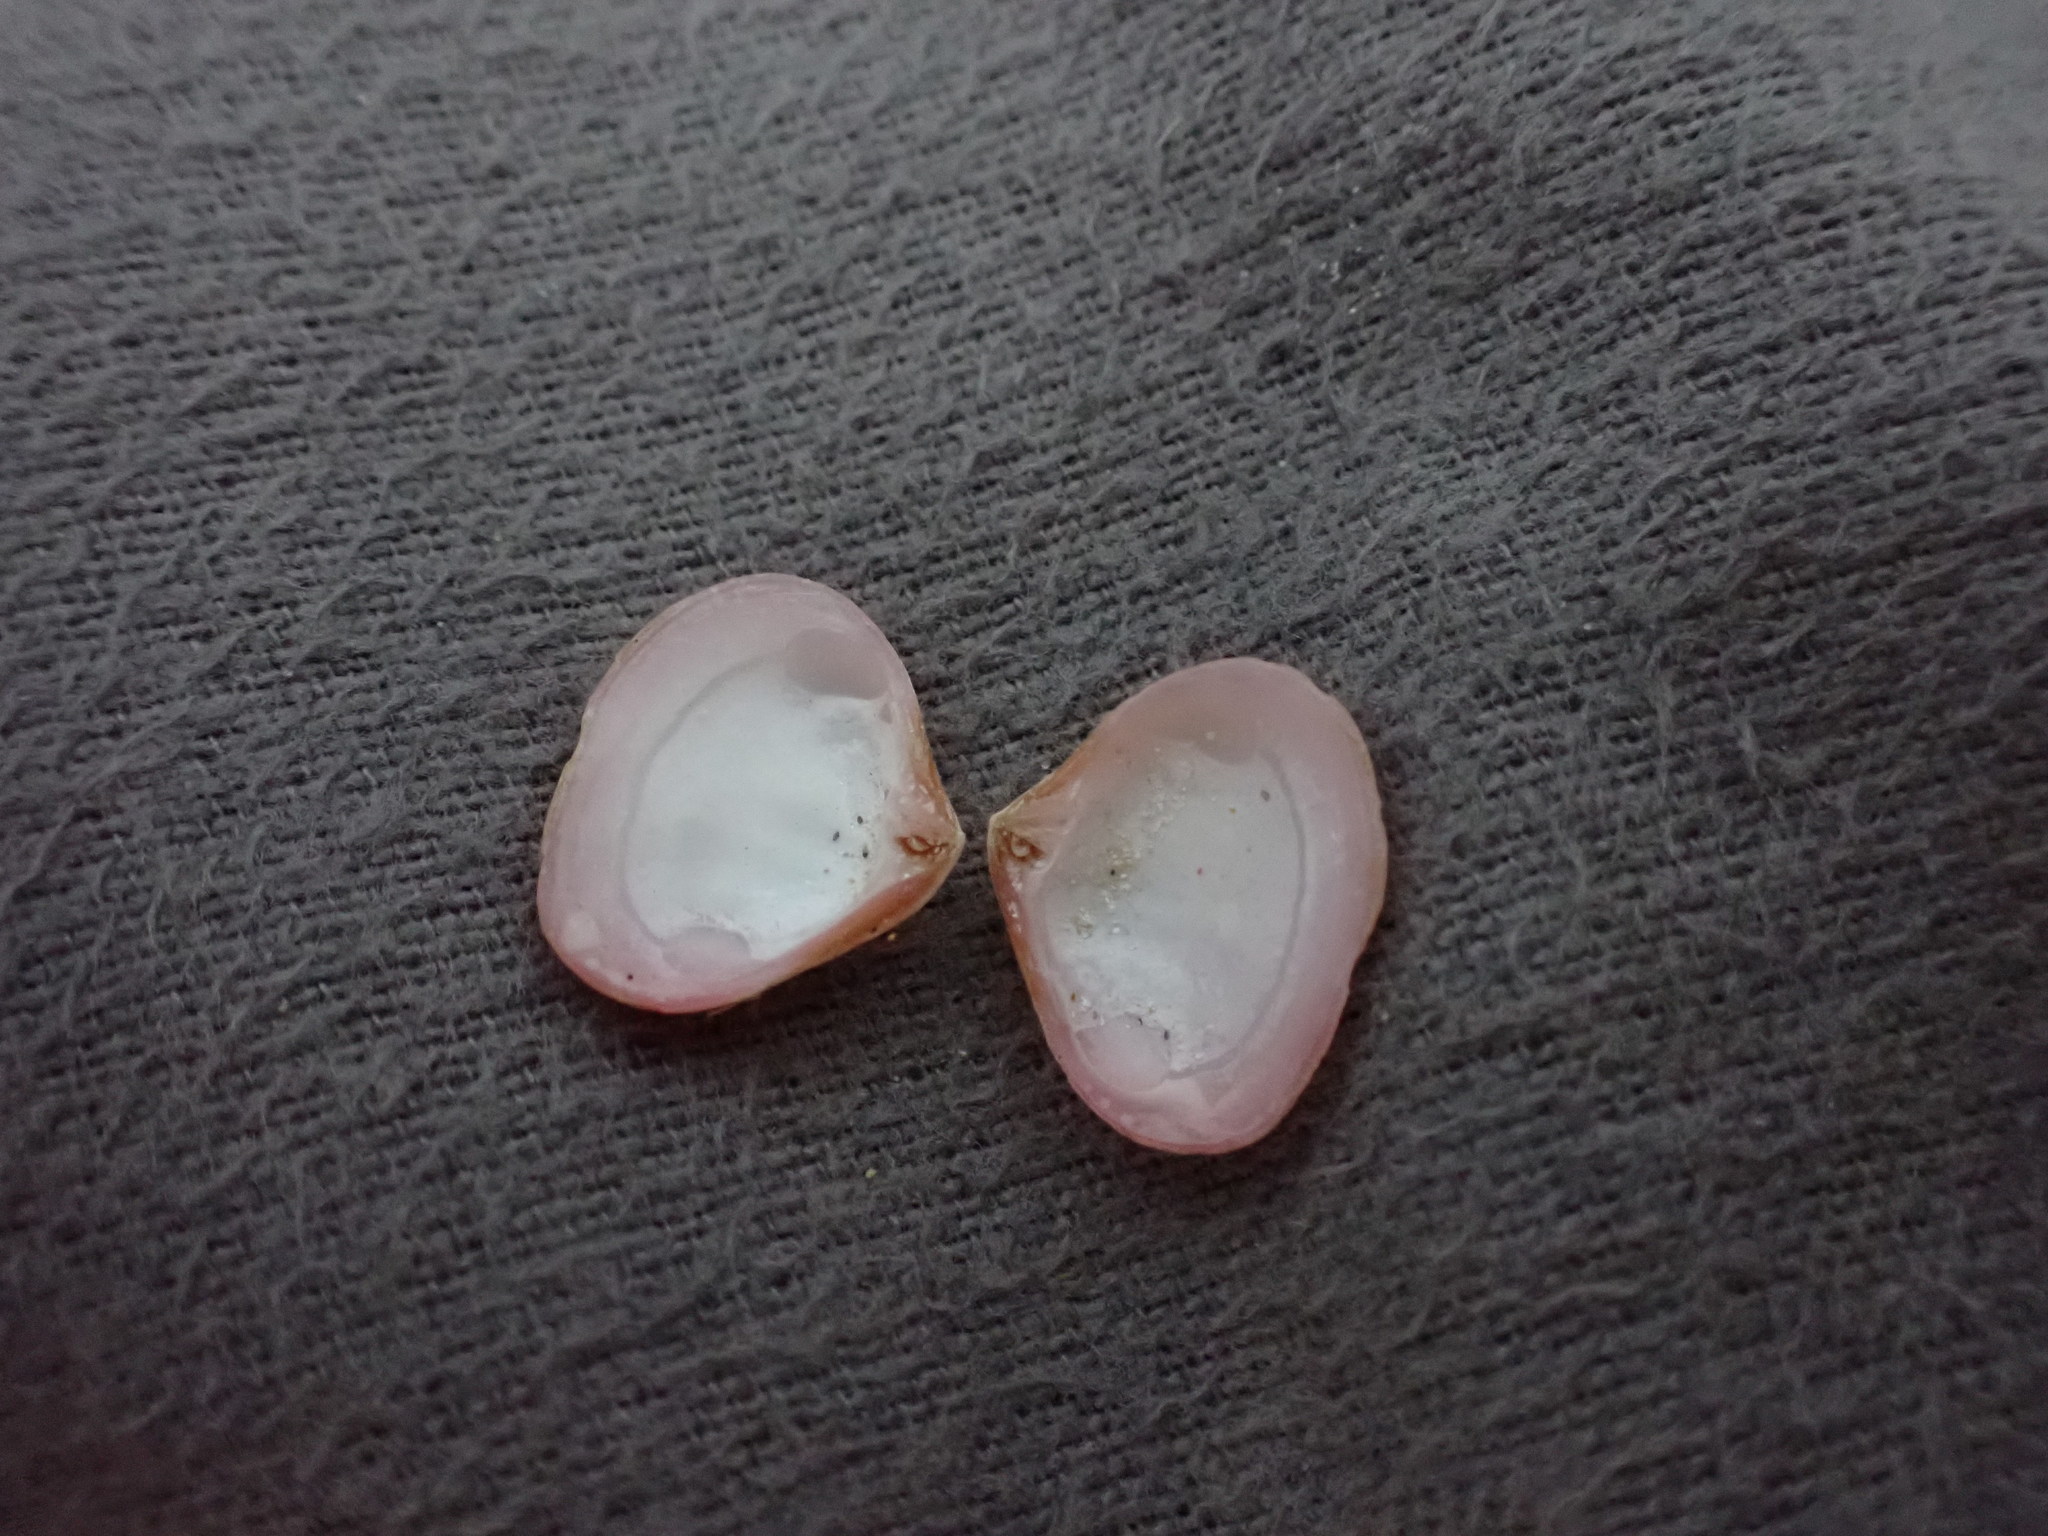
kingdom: Animalia
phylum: Mollusca
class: Bivalvia
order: Carditida
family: Crassatellidae
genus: Talabrica
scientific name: Talabrica bellula
